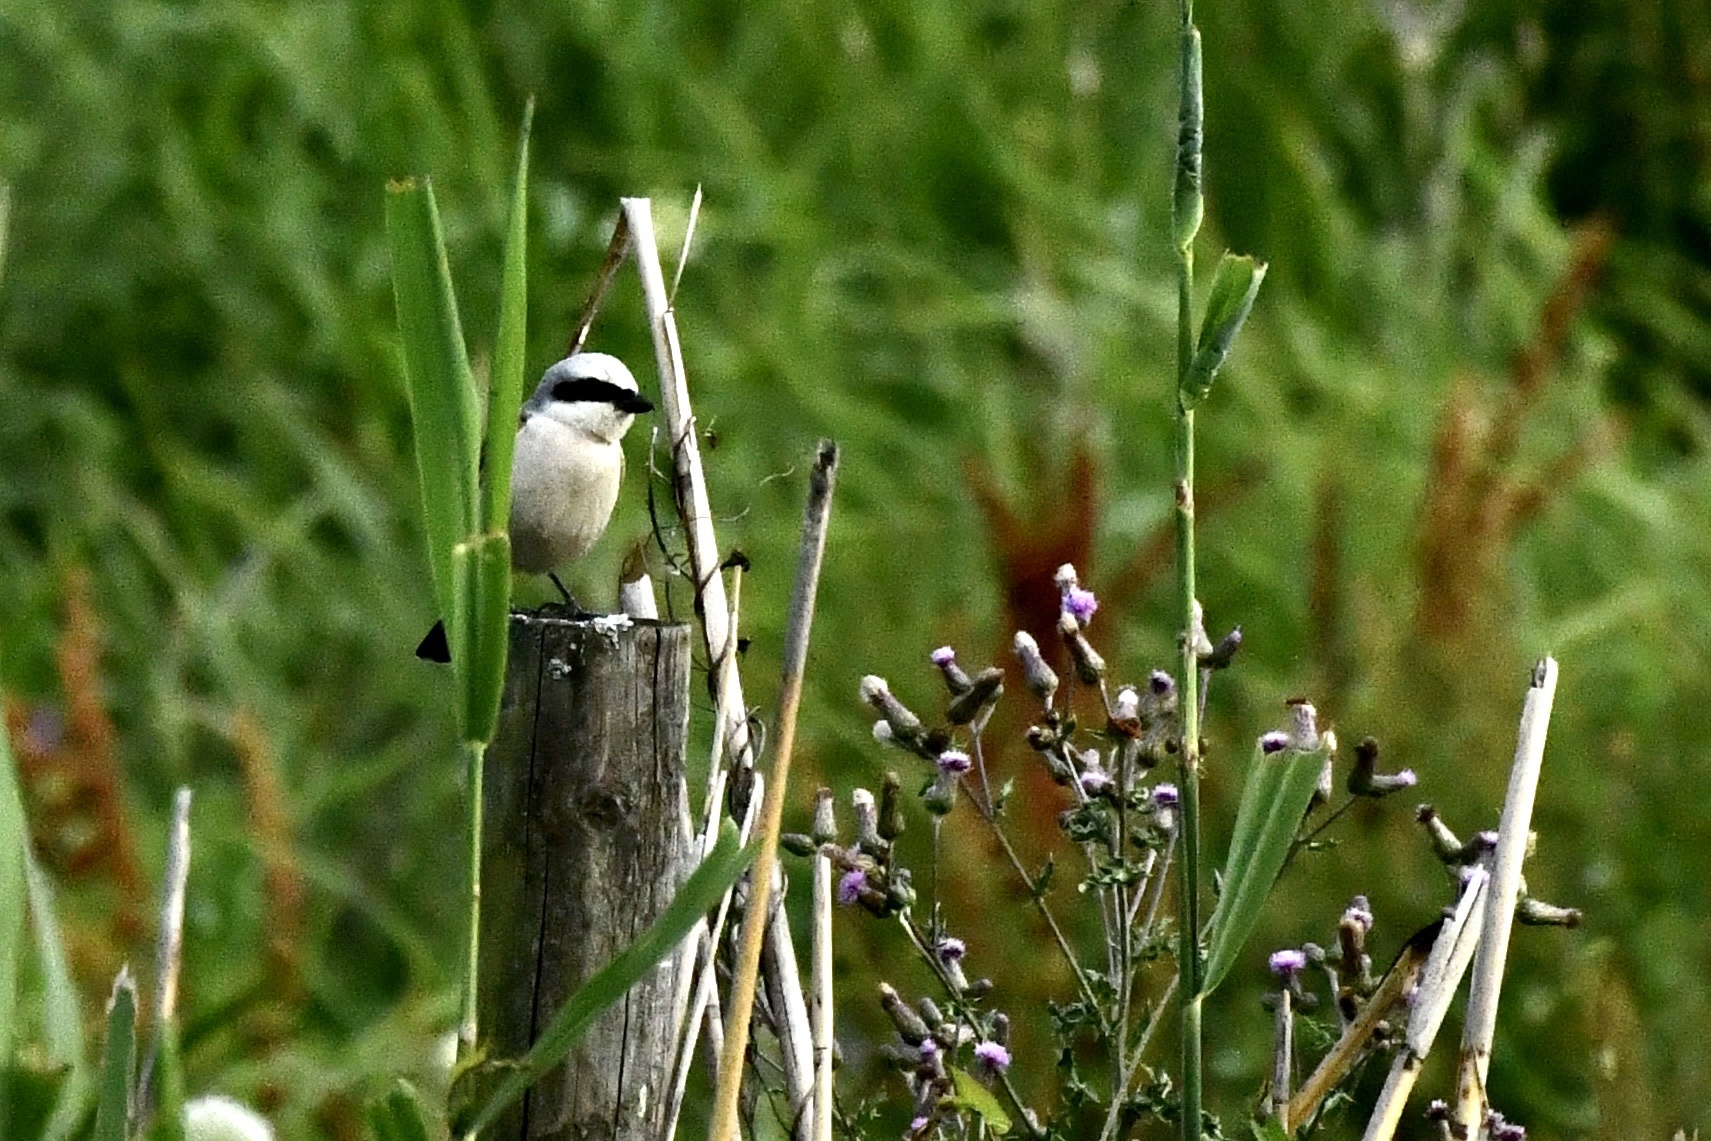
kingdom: Animalia
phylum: Chordata
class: Aves
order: Passeriformes
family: Laniidae
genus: Lanius
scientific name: Lanius collurio
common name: Red-backed shrike
